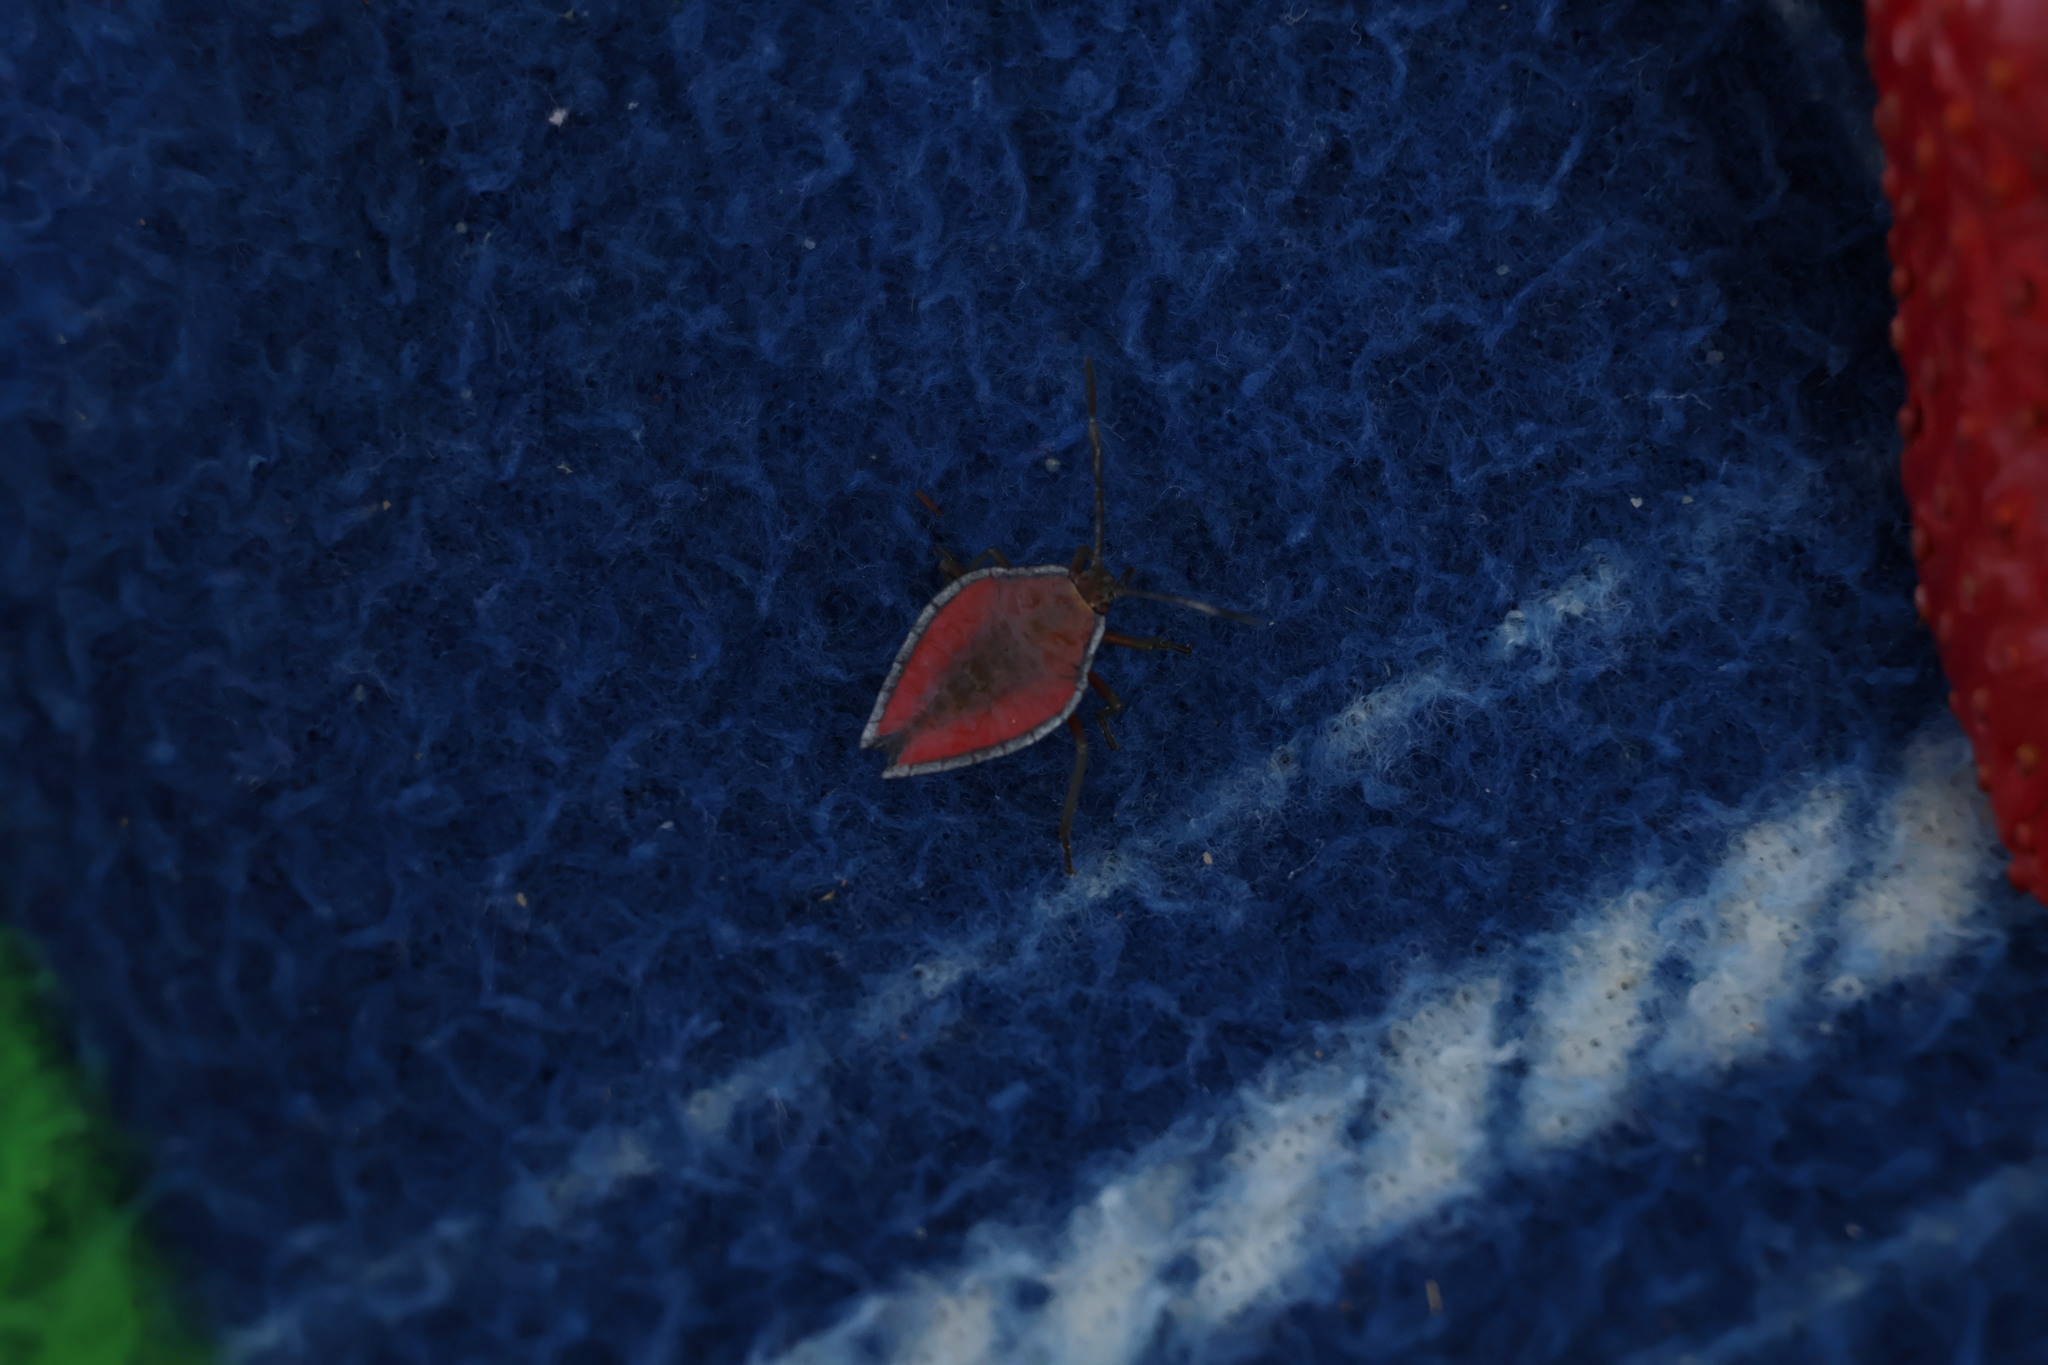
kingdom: Animalia
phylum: Arthropoda
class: Insecta
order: Hemiptera
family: Tessaratomidae
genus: Lyramorpha
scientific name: Lyramorpha rosea
